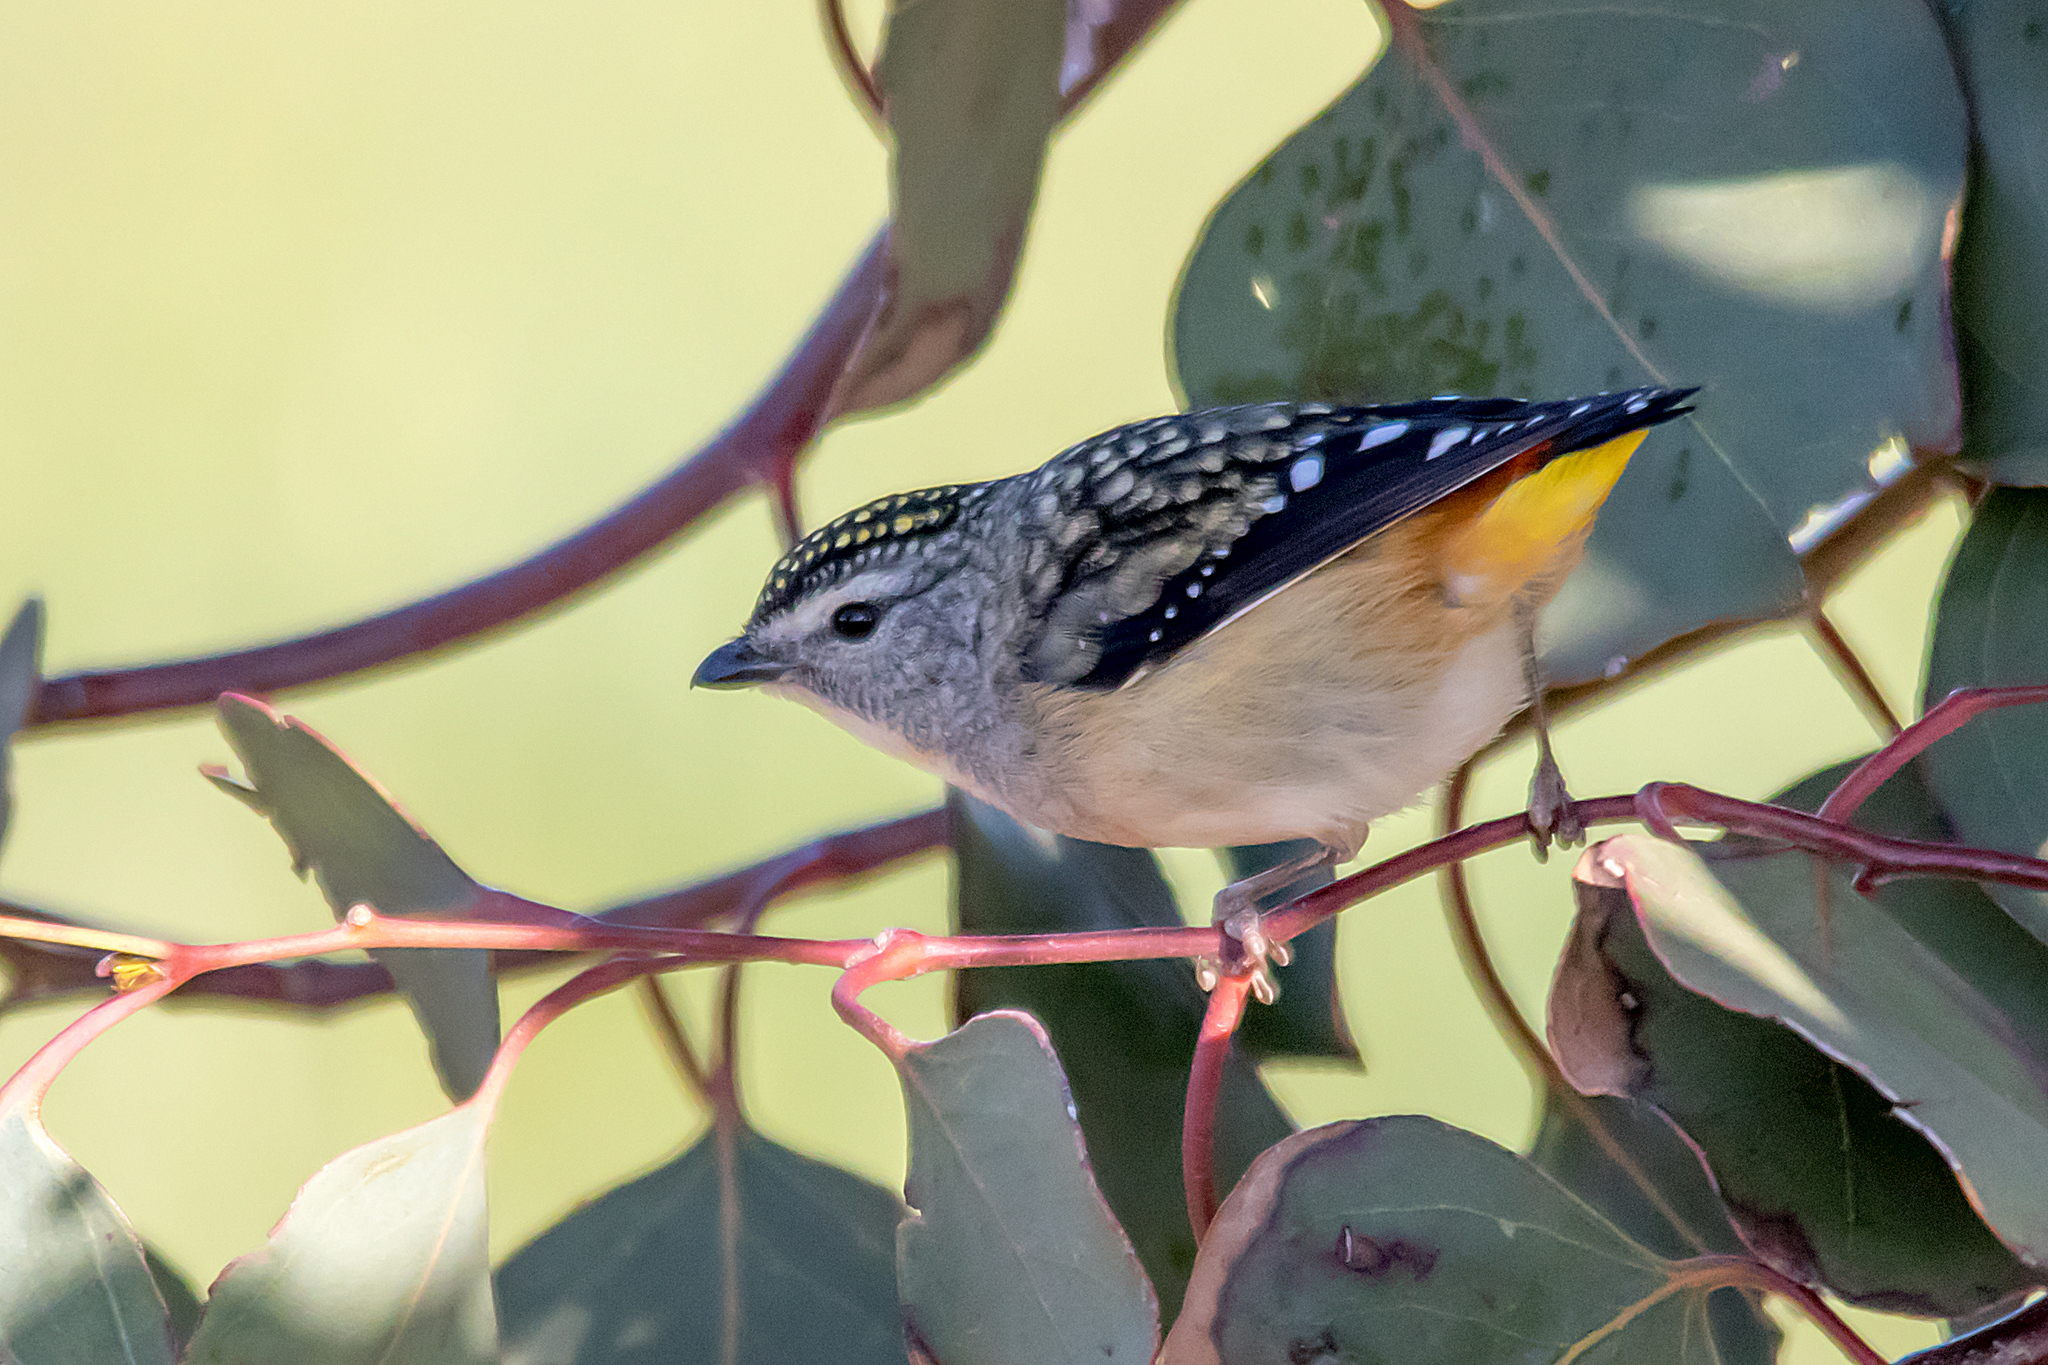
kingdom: Animalia
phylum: Chordata
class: Aves
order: Passeriformes
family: Pardalotidae
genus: Pardalotus
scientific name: Pardalotus punctatus
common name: Spotted pardalote
